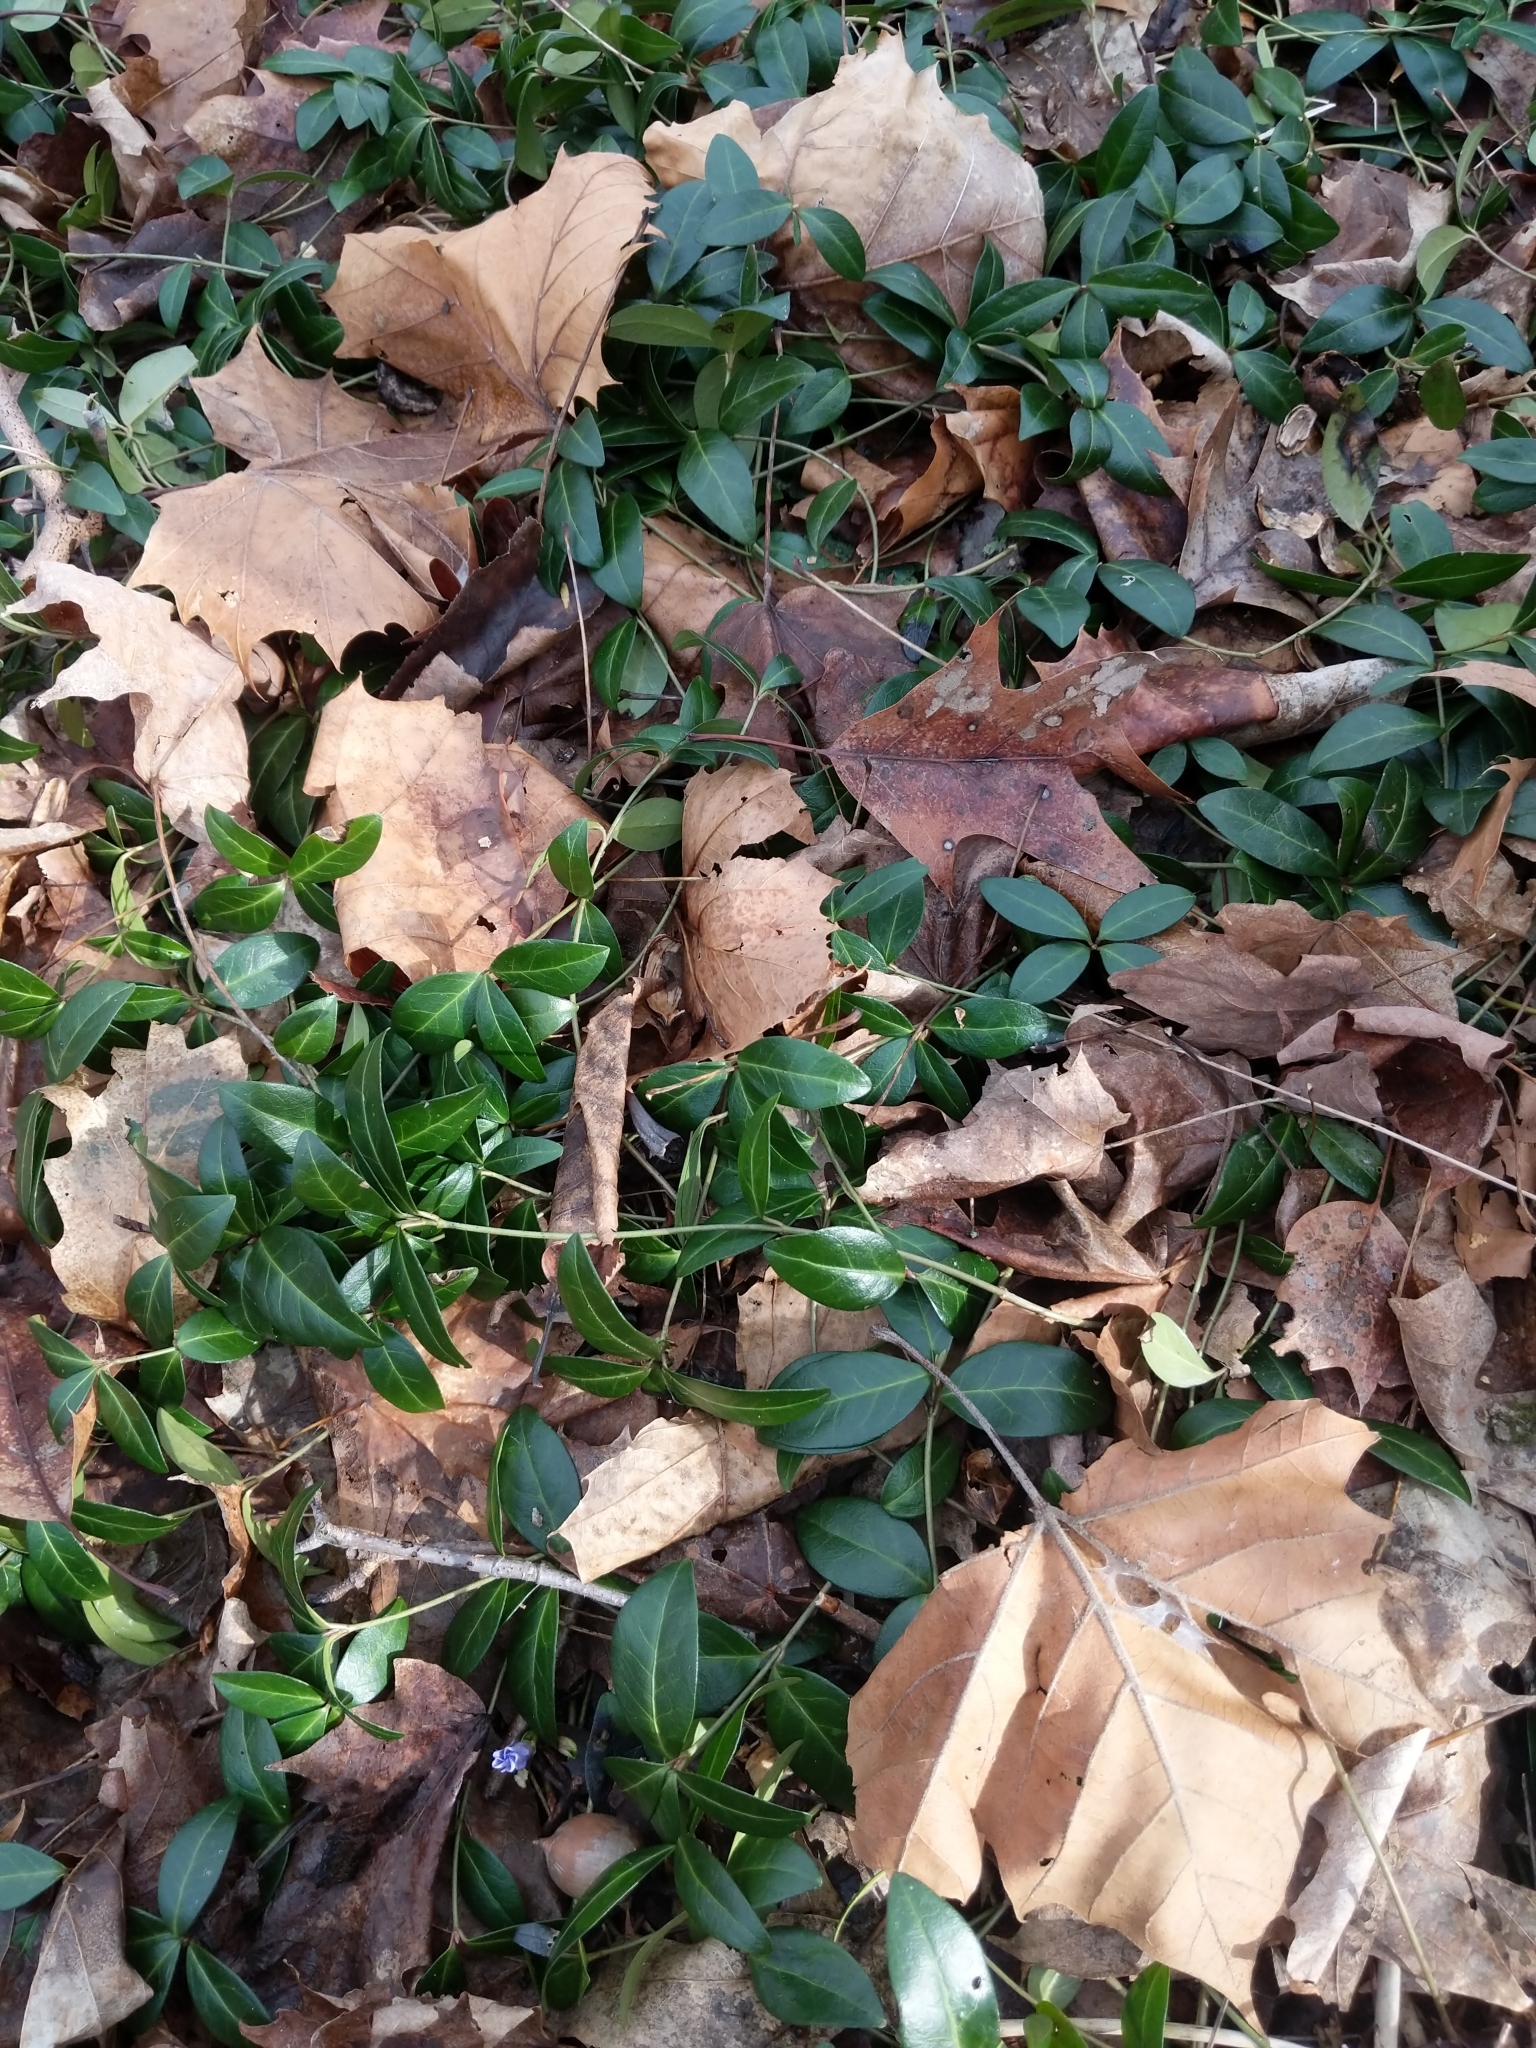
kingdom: Plantae
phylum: Tracheophyta
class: Magnoliopsida
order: Gentianales
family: Apocynaceae
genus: Vinca
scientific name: Vinca minor
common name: Lesser periwinkle
